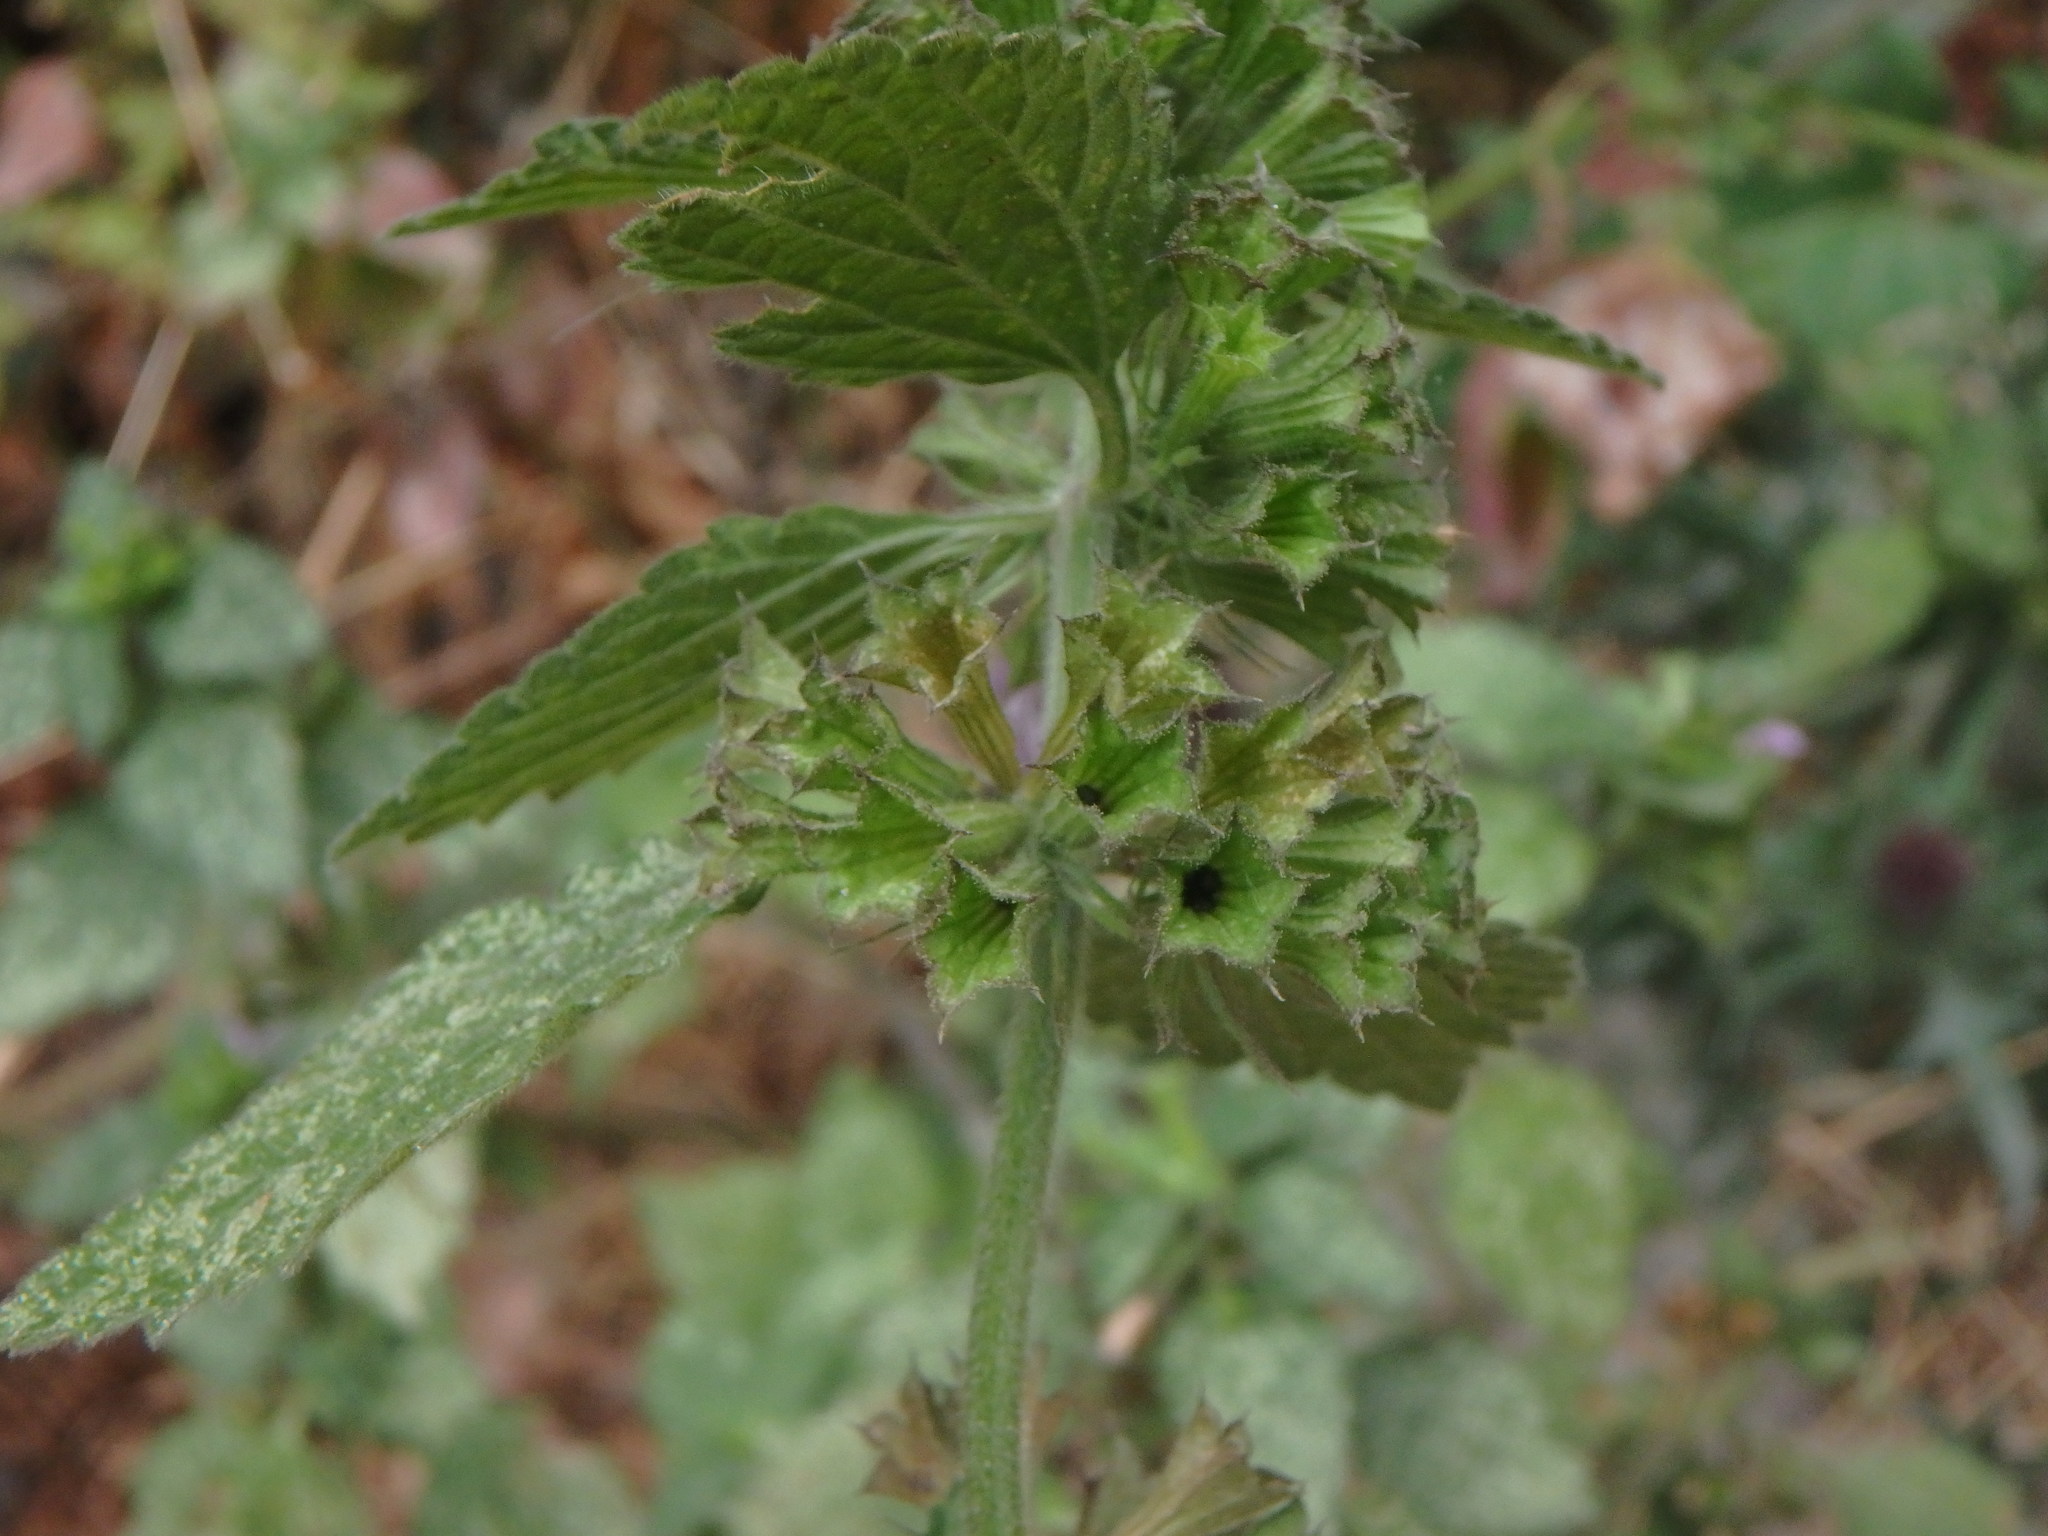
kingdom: Plantae
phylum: Tracheophyta
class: Magnoliopsida
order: Lamiales
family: Lamiaceae
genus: Ballota
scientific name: Ballota nigra
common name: Black horehound
